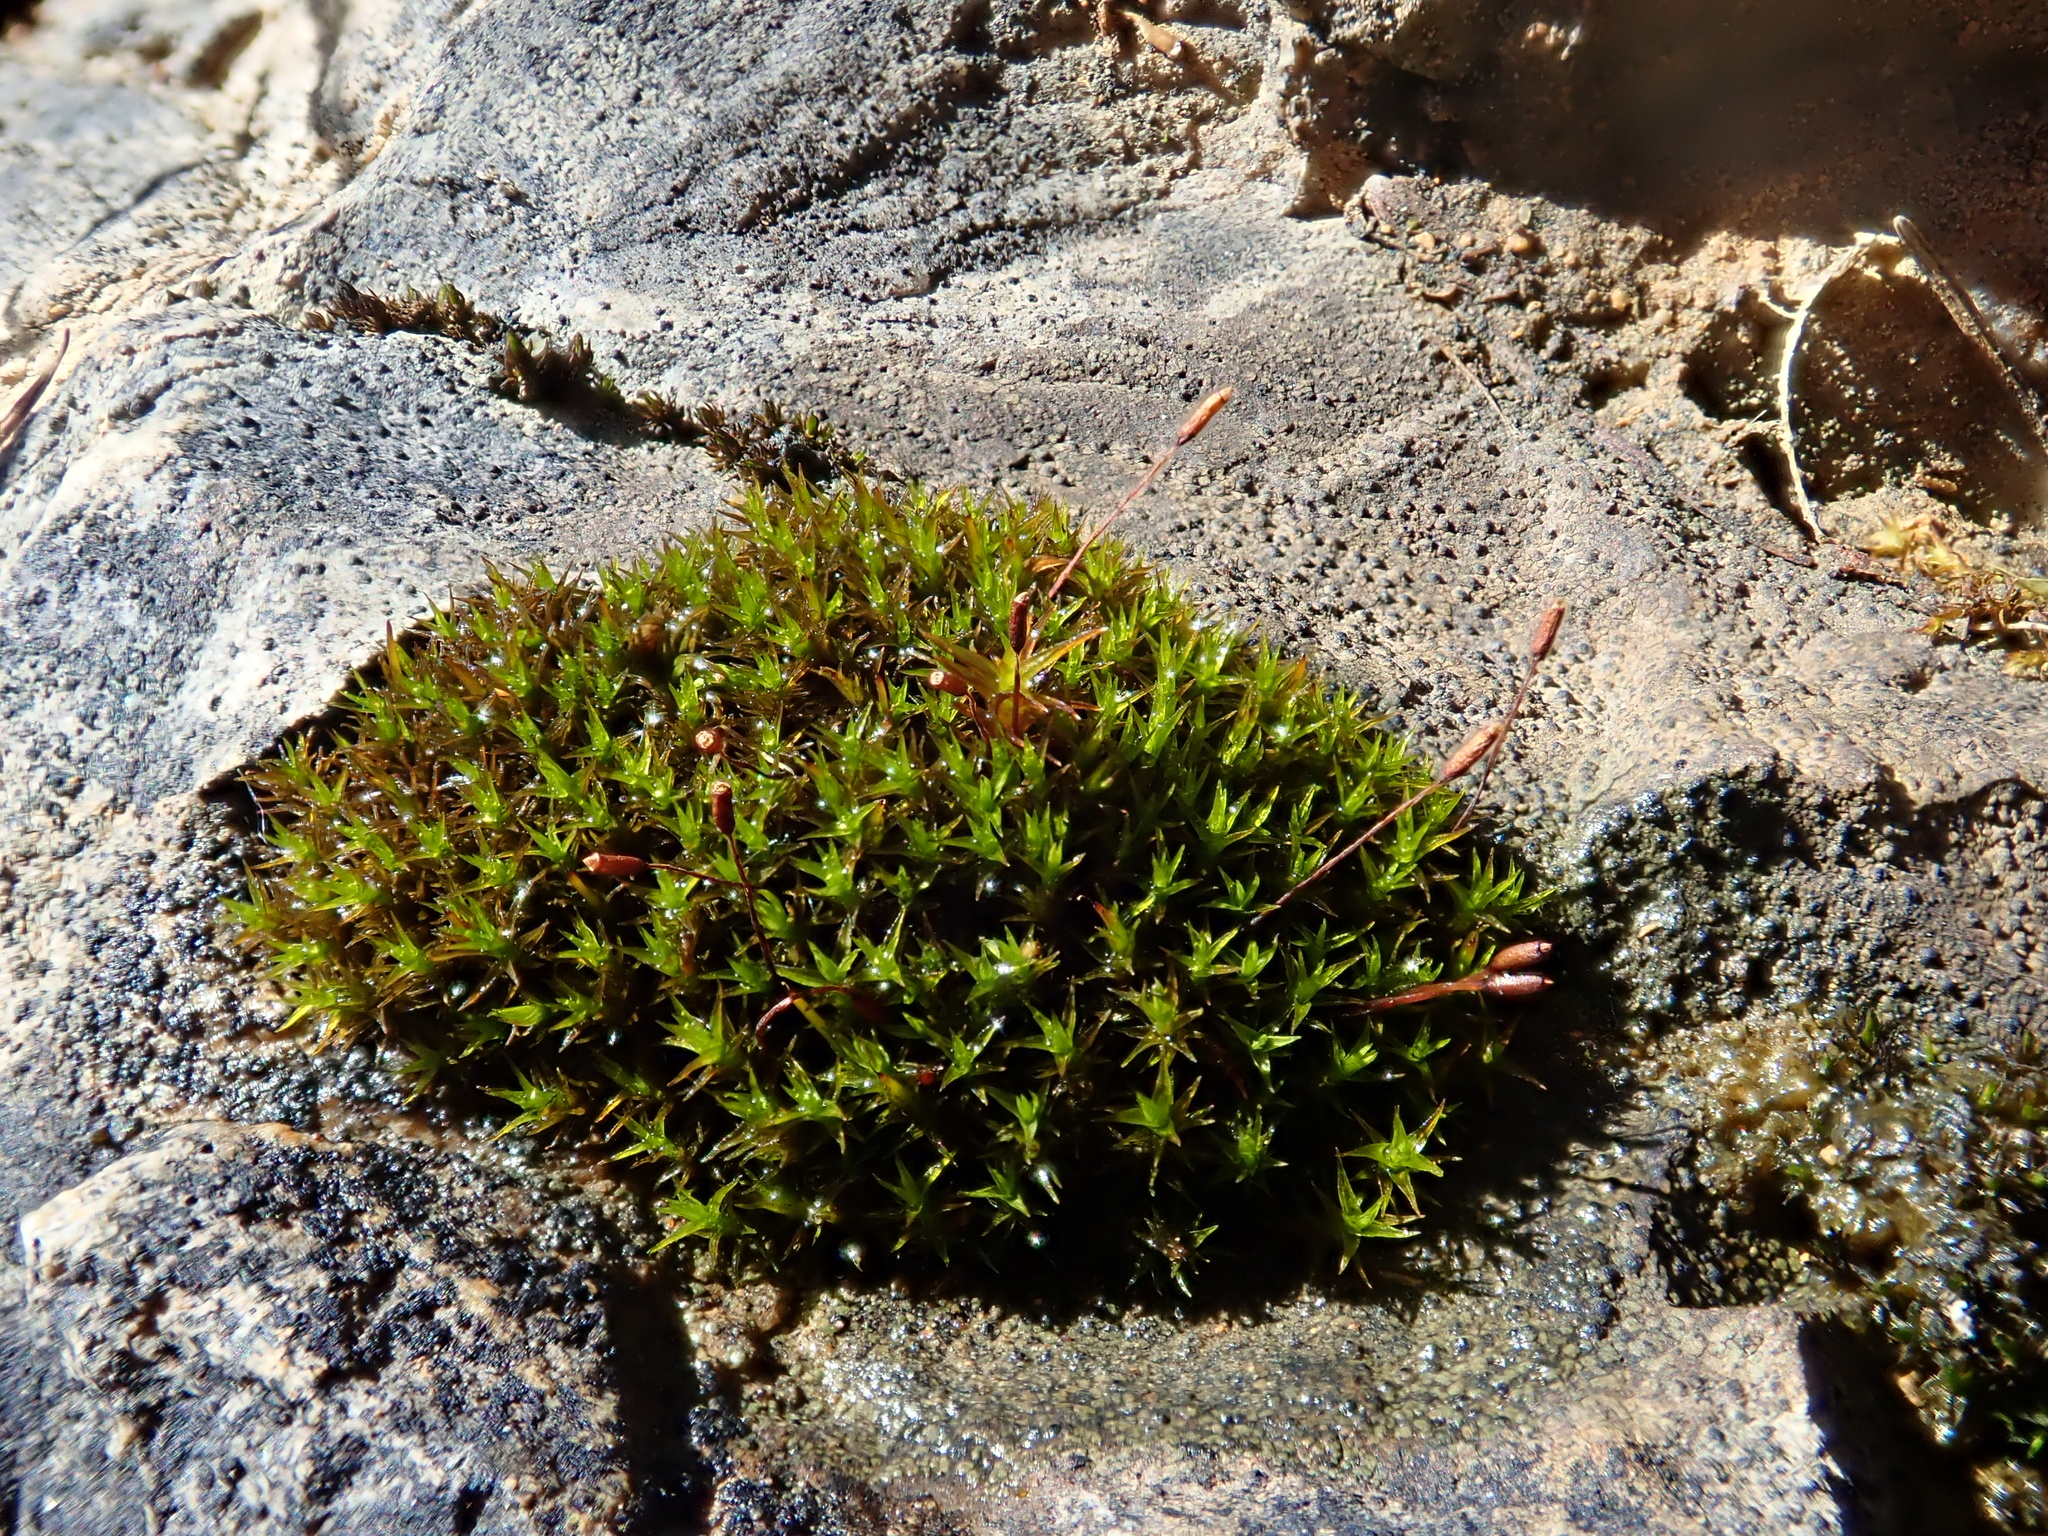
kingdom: Plantae
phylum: Bryophyta
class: Bryopsida
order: Pottiales
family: Pottiaceae
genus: Didymodon
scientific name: Didymodon rigidulus
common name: Rigid beard-moss
